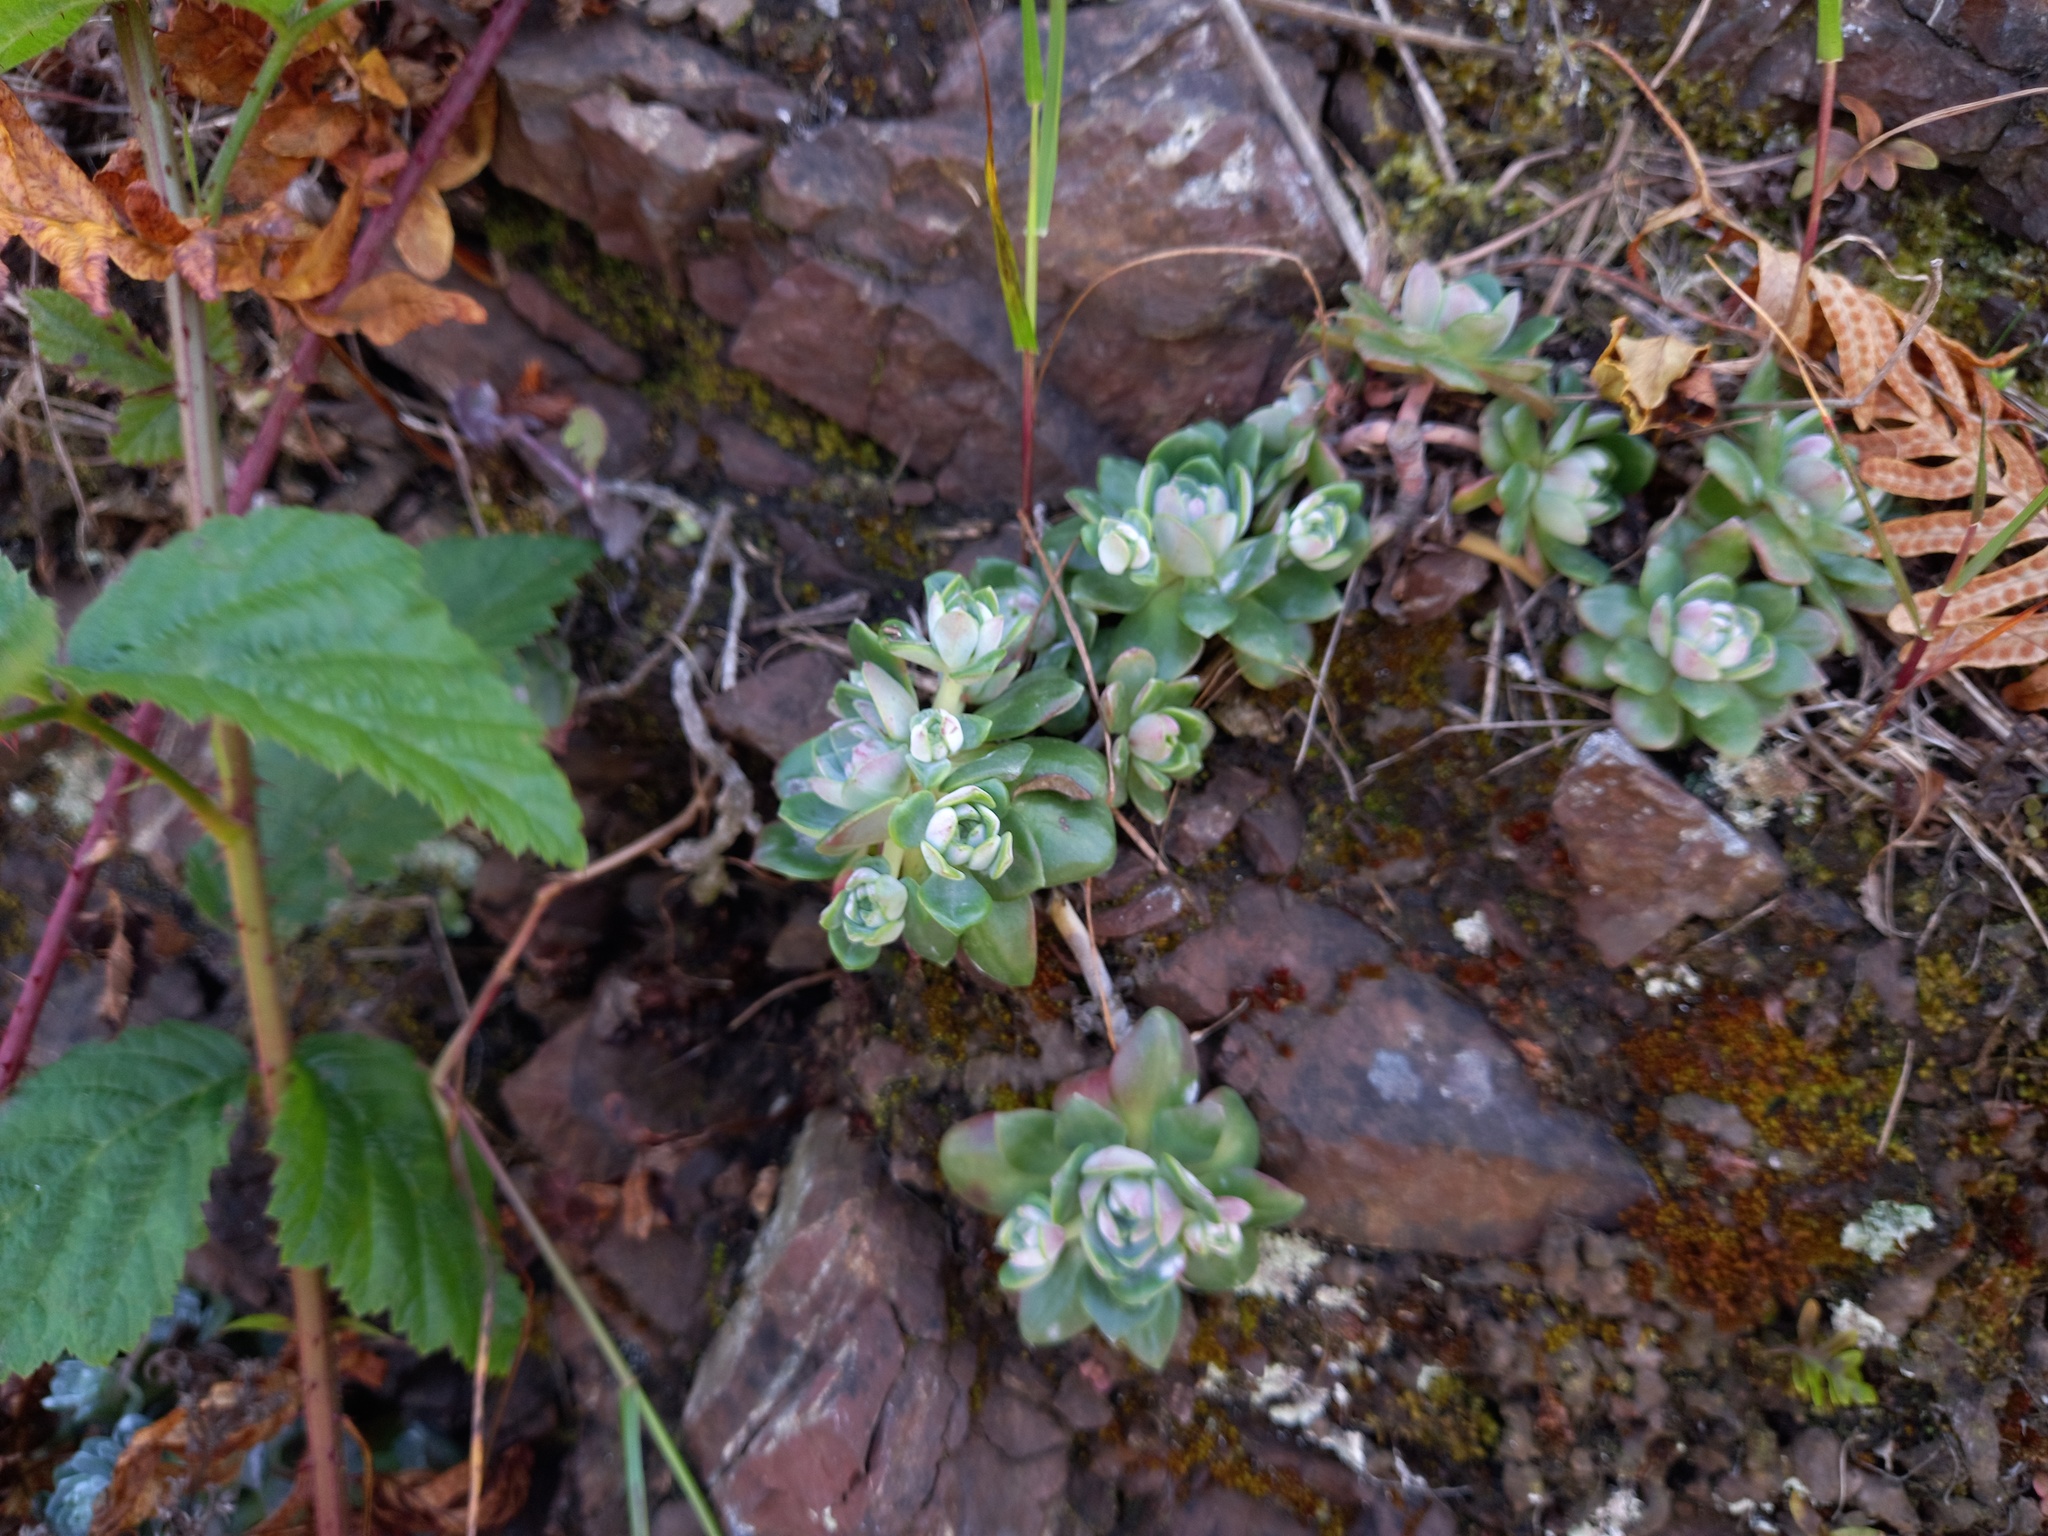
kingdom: Plantae
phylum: Tracheophyta
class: Magnoliopsida
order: Saxifragales
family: Crassulaceae
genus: Sedum
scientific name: Sedum spathulifolium
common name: Colorado stonecrop
